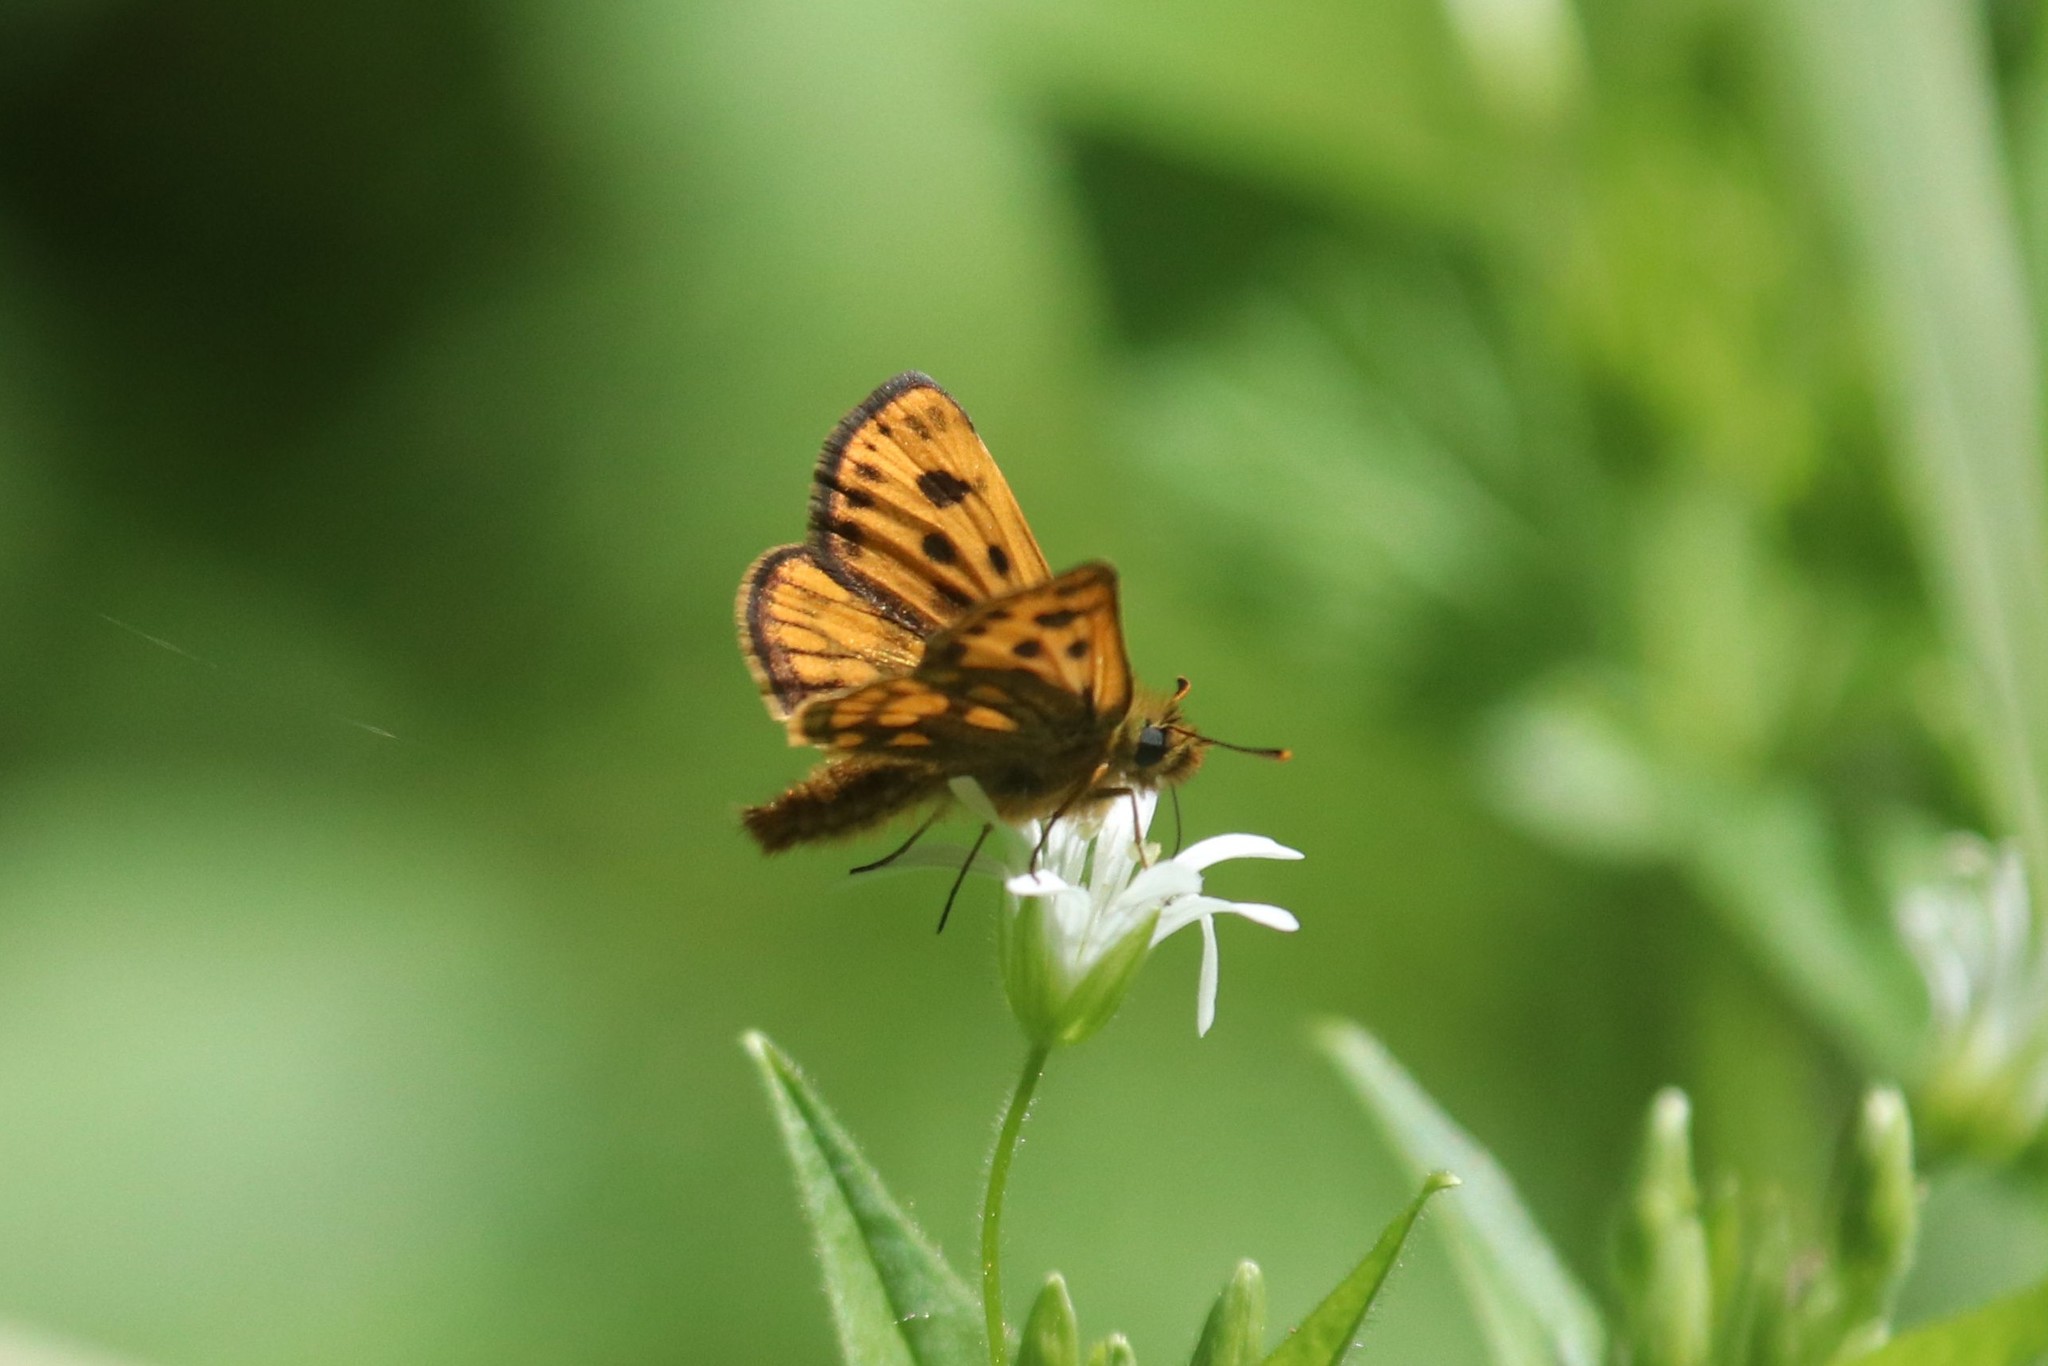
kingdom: Animalia
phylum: Arthropoda
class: Insecta
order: Lepidoptera
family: Hesperiidae
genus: Carterocephalus
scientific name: Carterocephalus silvicola
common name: Northern chequered skipper
